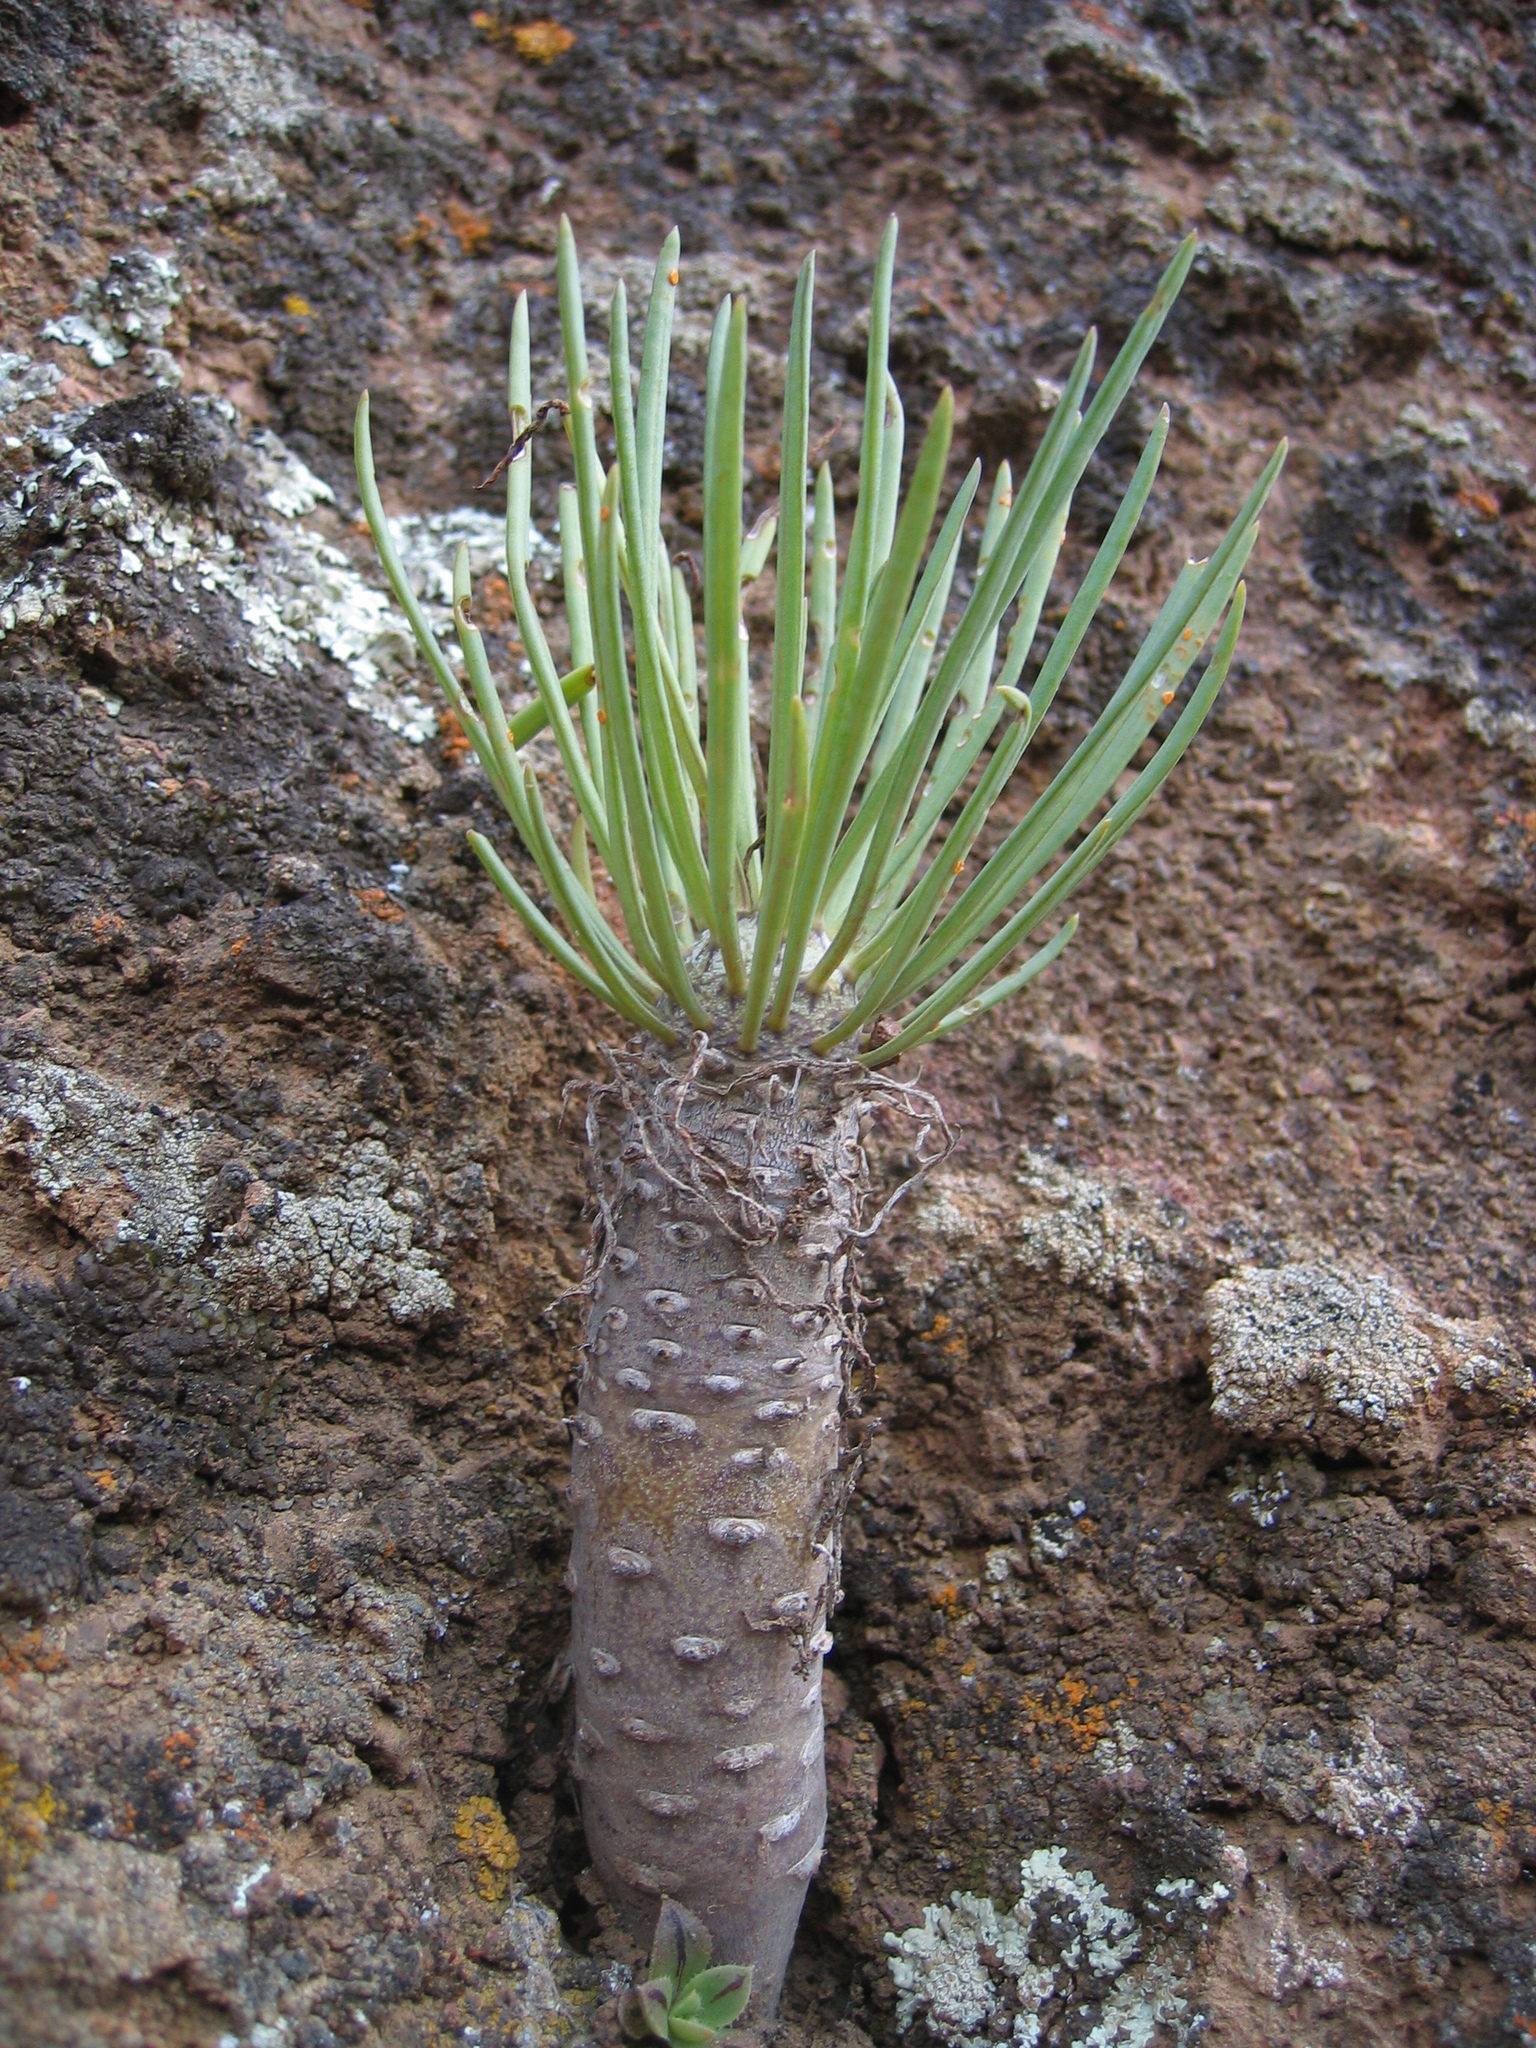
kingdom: Plantae
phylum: Tracheophyta
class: Magnoliopsida
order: Asterales
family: Asteraceae
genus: Kleinia
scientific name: Kleinia neriifolia
